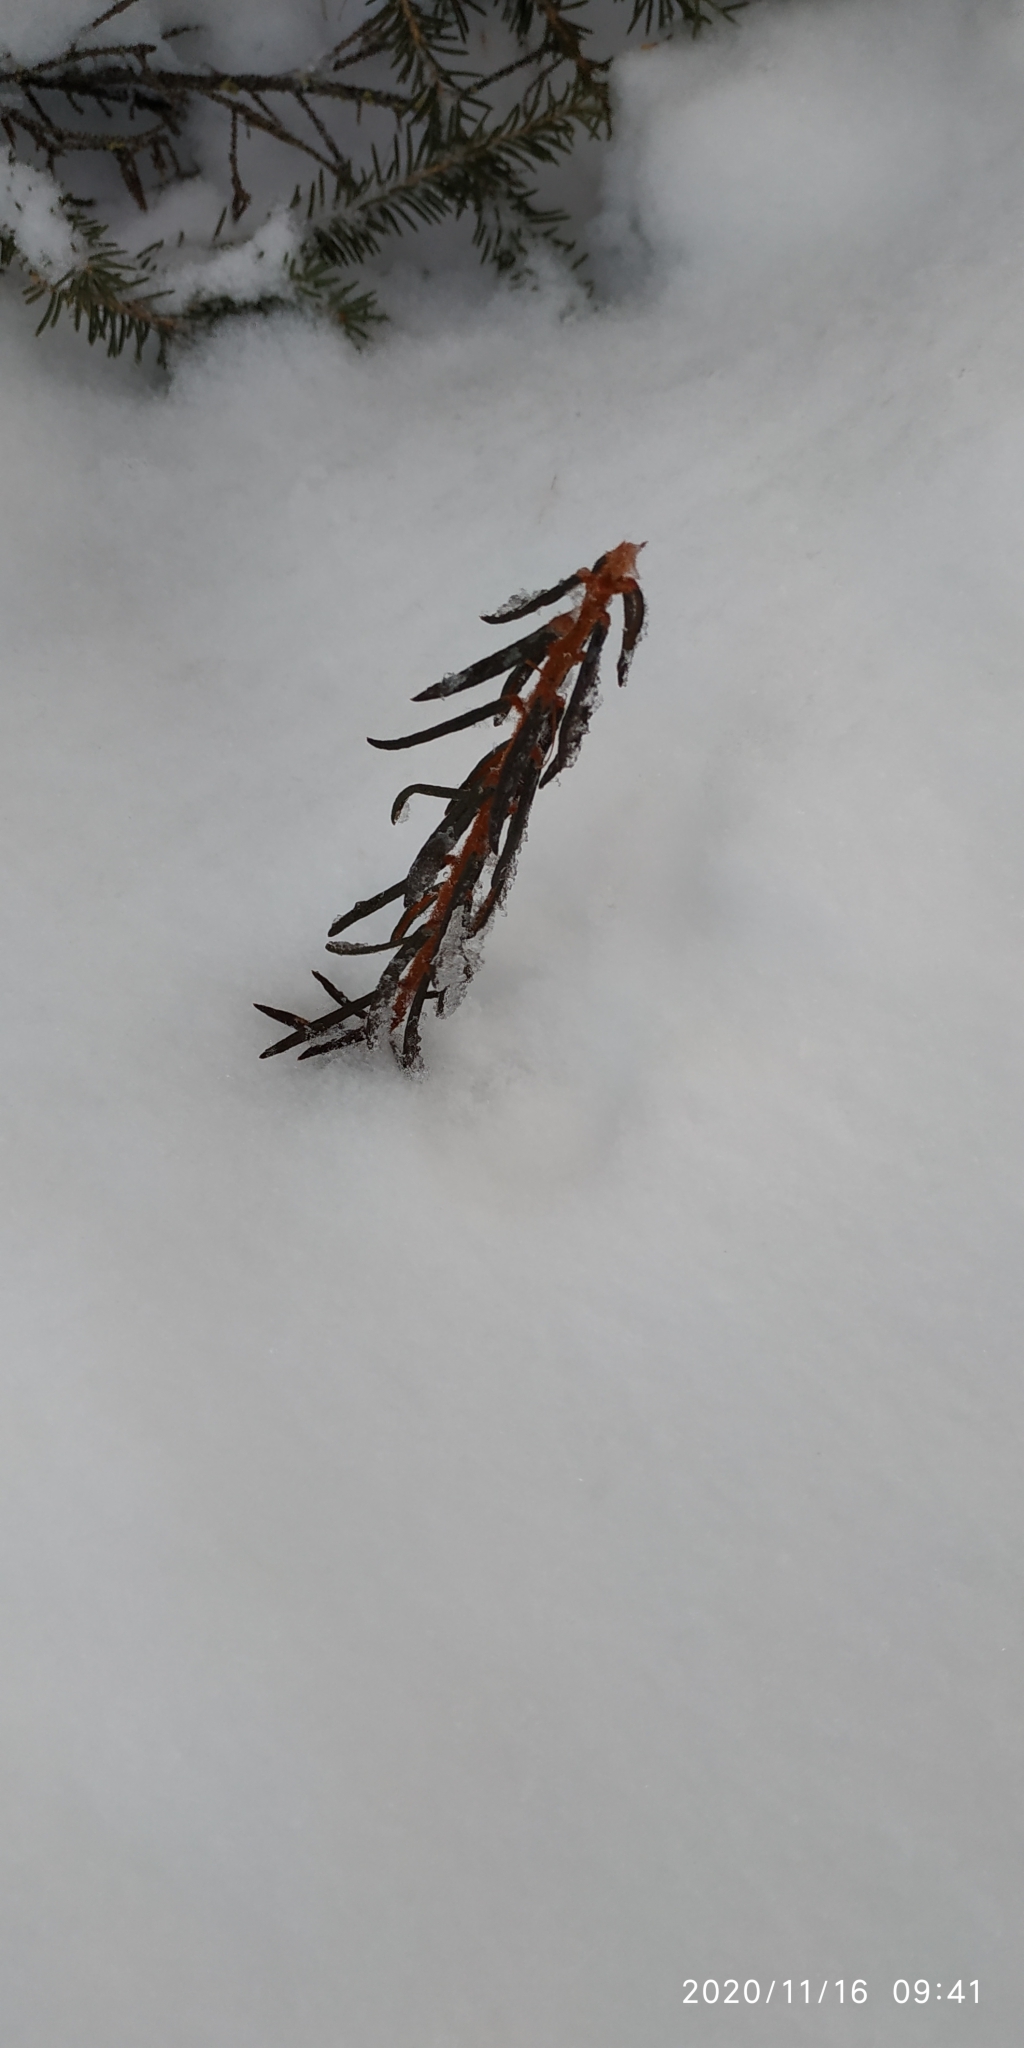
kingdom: Plantae
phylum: Tracheophyta
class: Magnoliopsida
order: Ericales
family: Ericaceae
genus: Rhododendron
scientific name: Rhododendron tomentosum
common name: Marsh labrador tea
